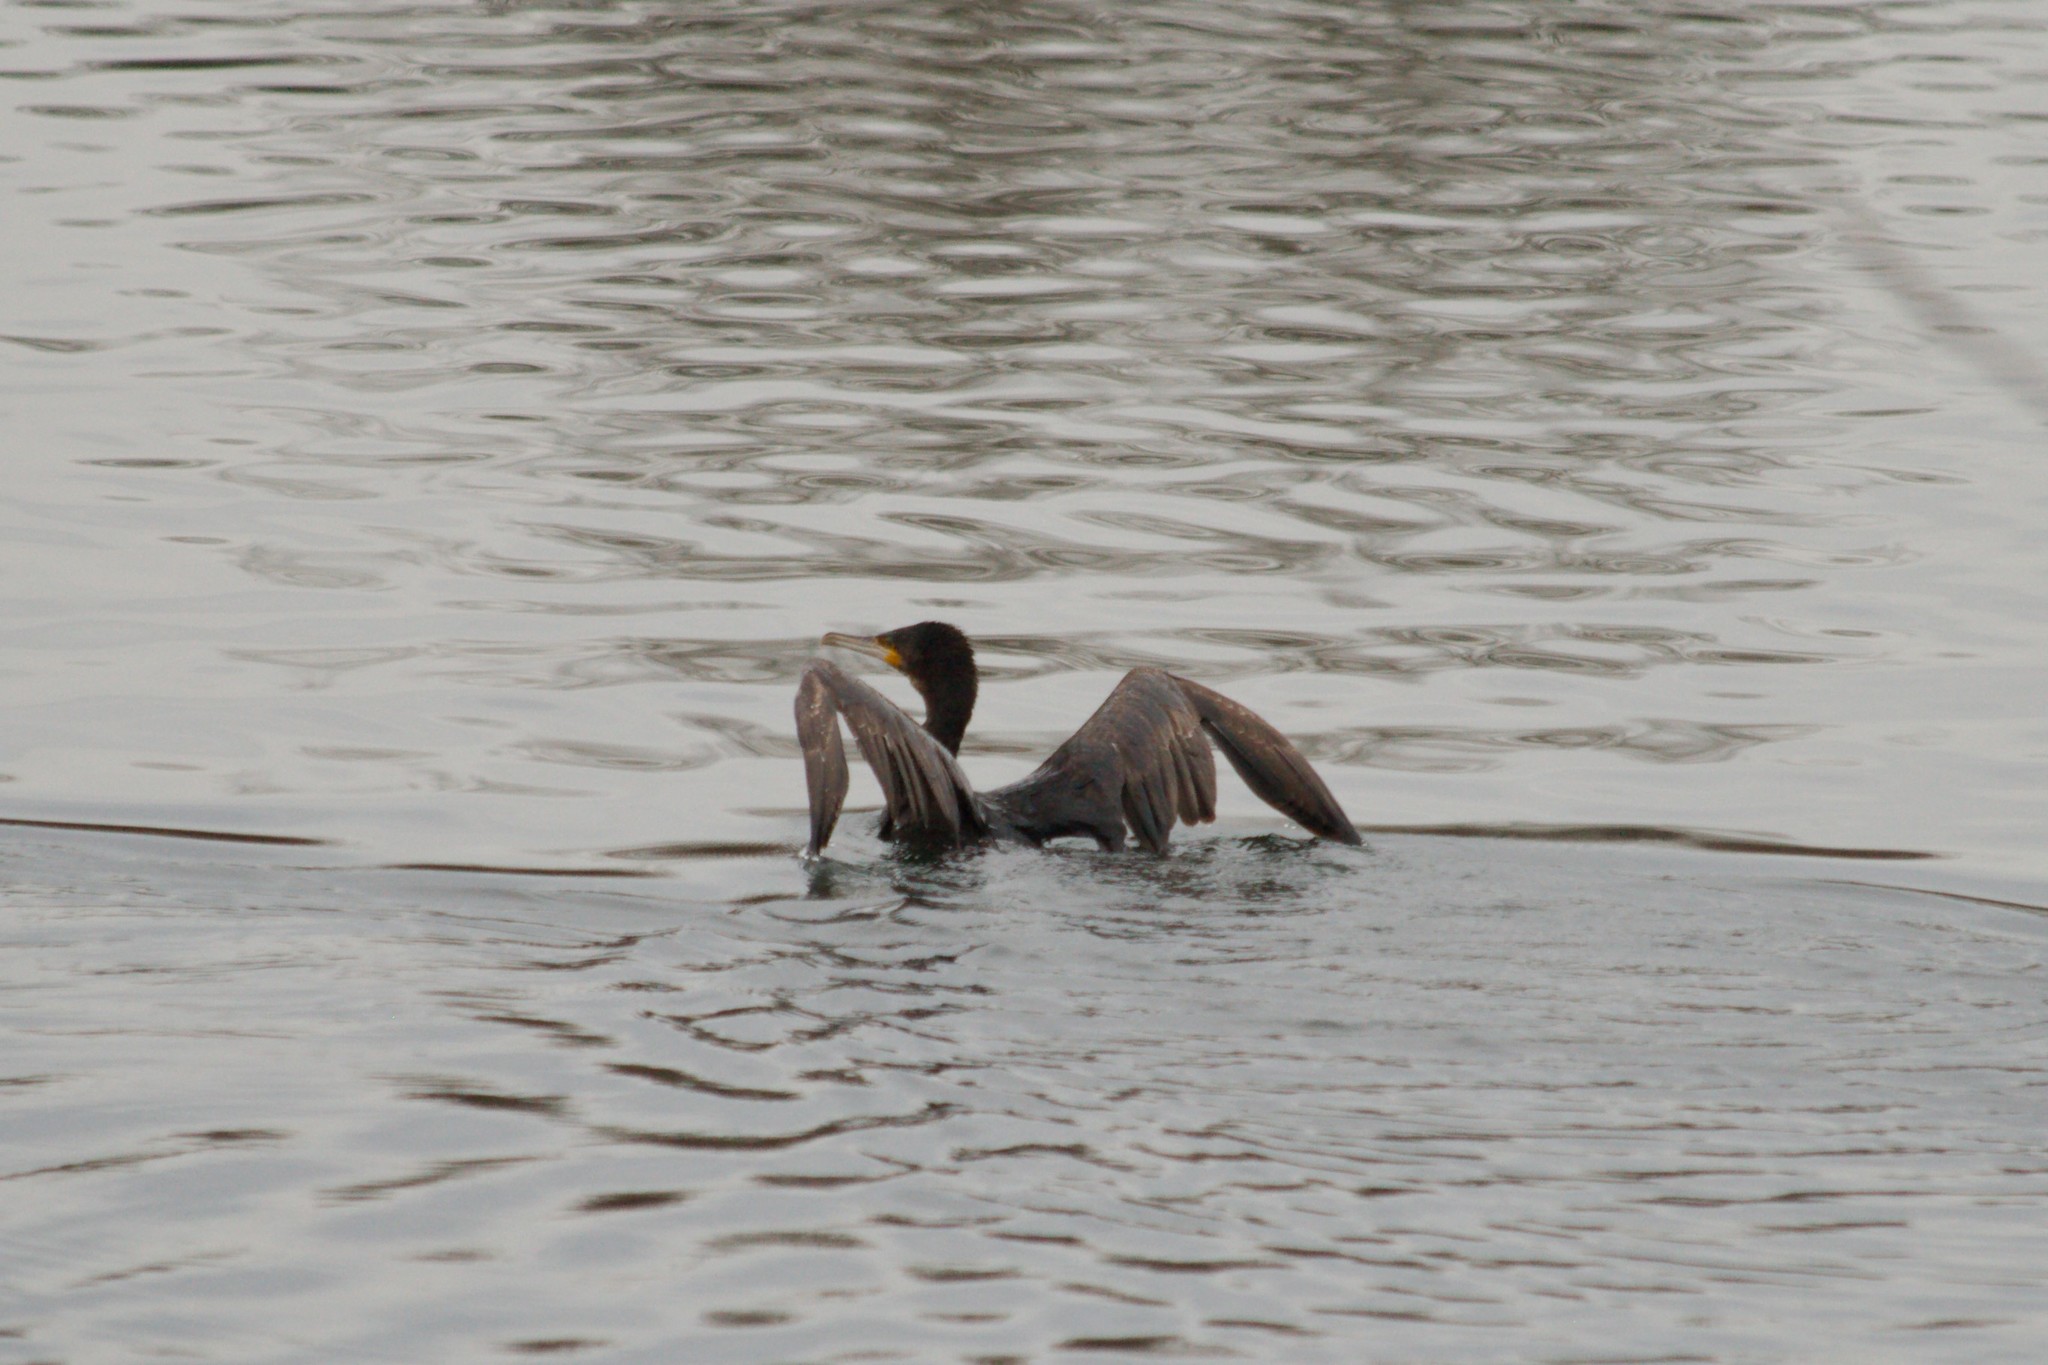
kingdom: Animalia
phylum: Chordata
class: Aves
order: Suliformes
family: Phalacrocoracidae
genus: Phalacrocorax
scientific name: Phalacrocorax carbo
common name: Great cormorant
